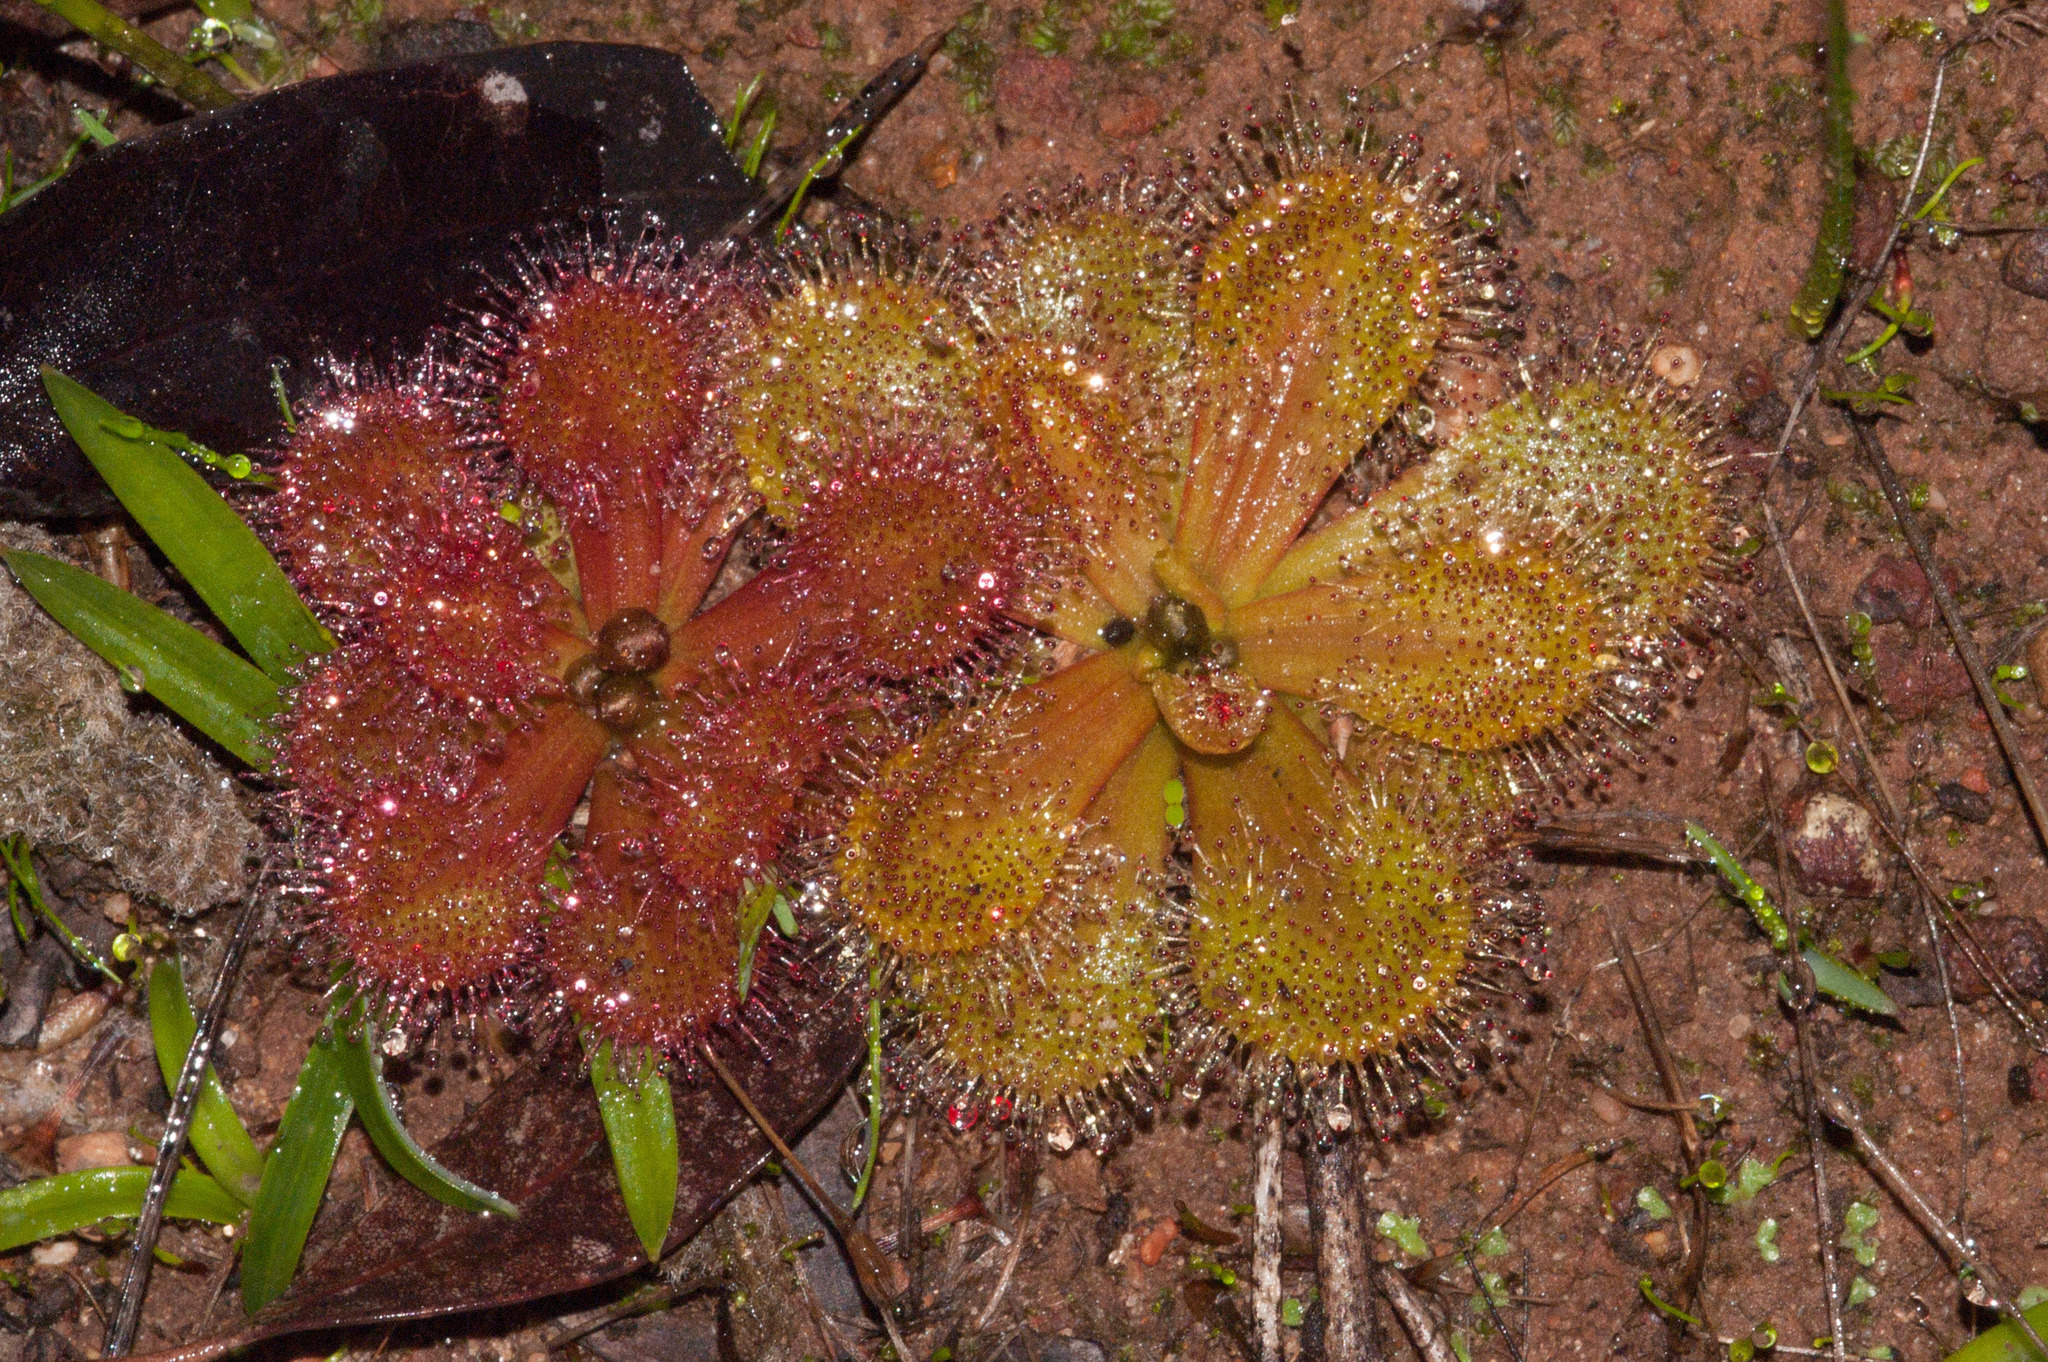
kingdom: Plantae
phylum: Tracheophyta
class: Magnoliopsida
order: Caryophyllales
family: Droseraceae
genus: Drosera
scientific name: Drosera whittakeri
